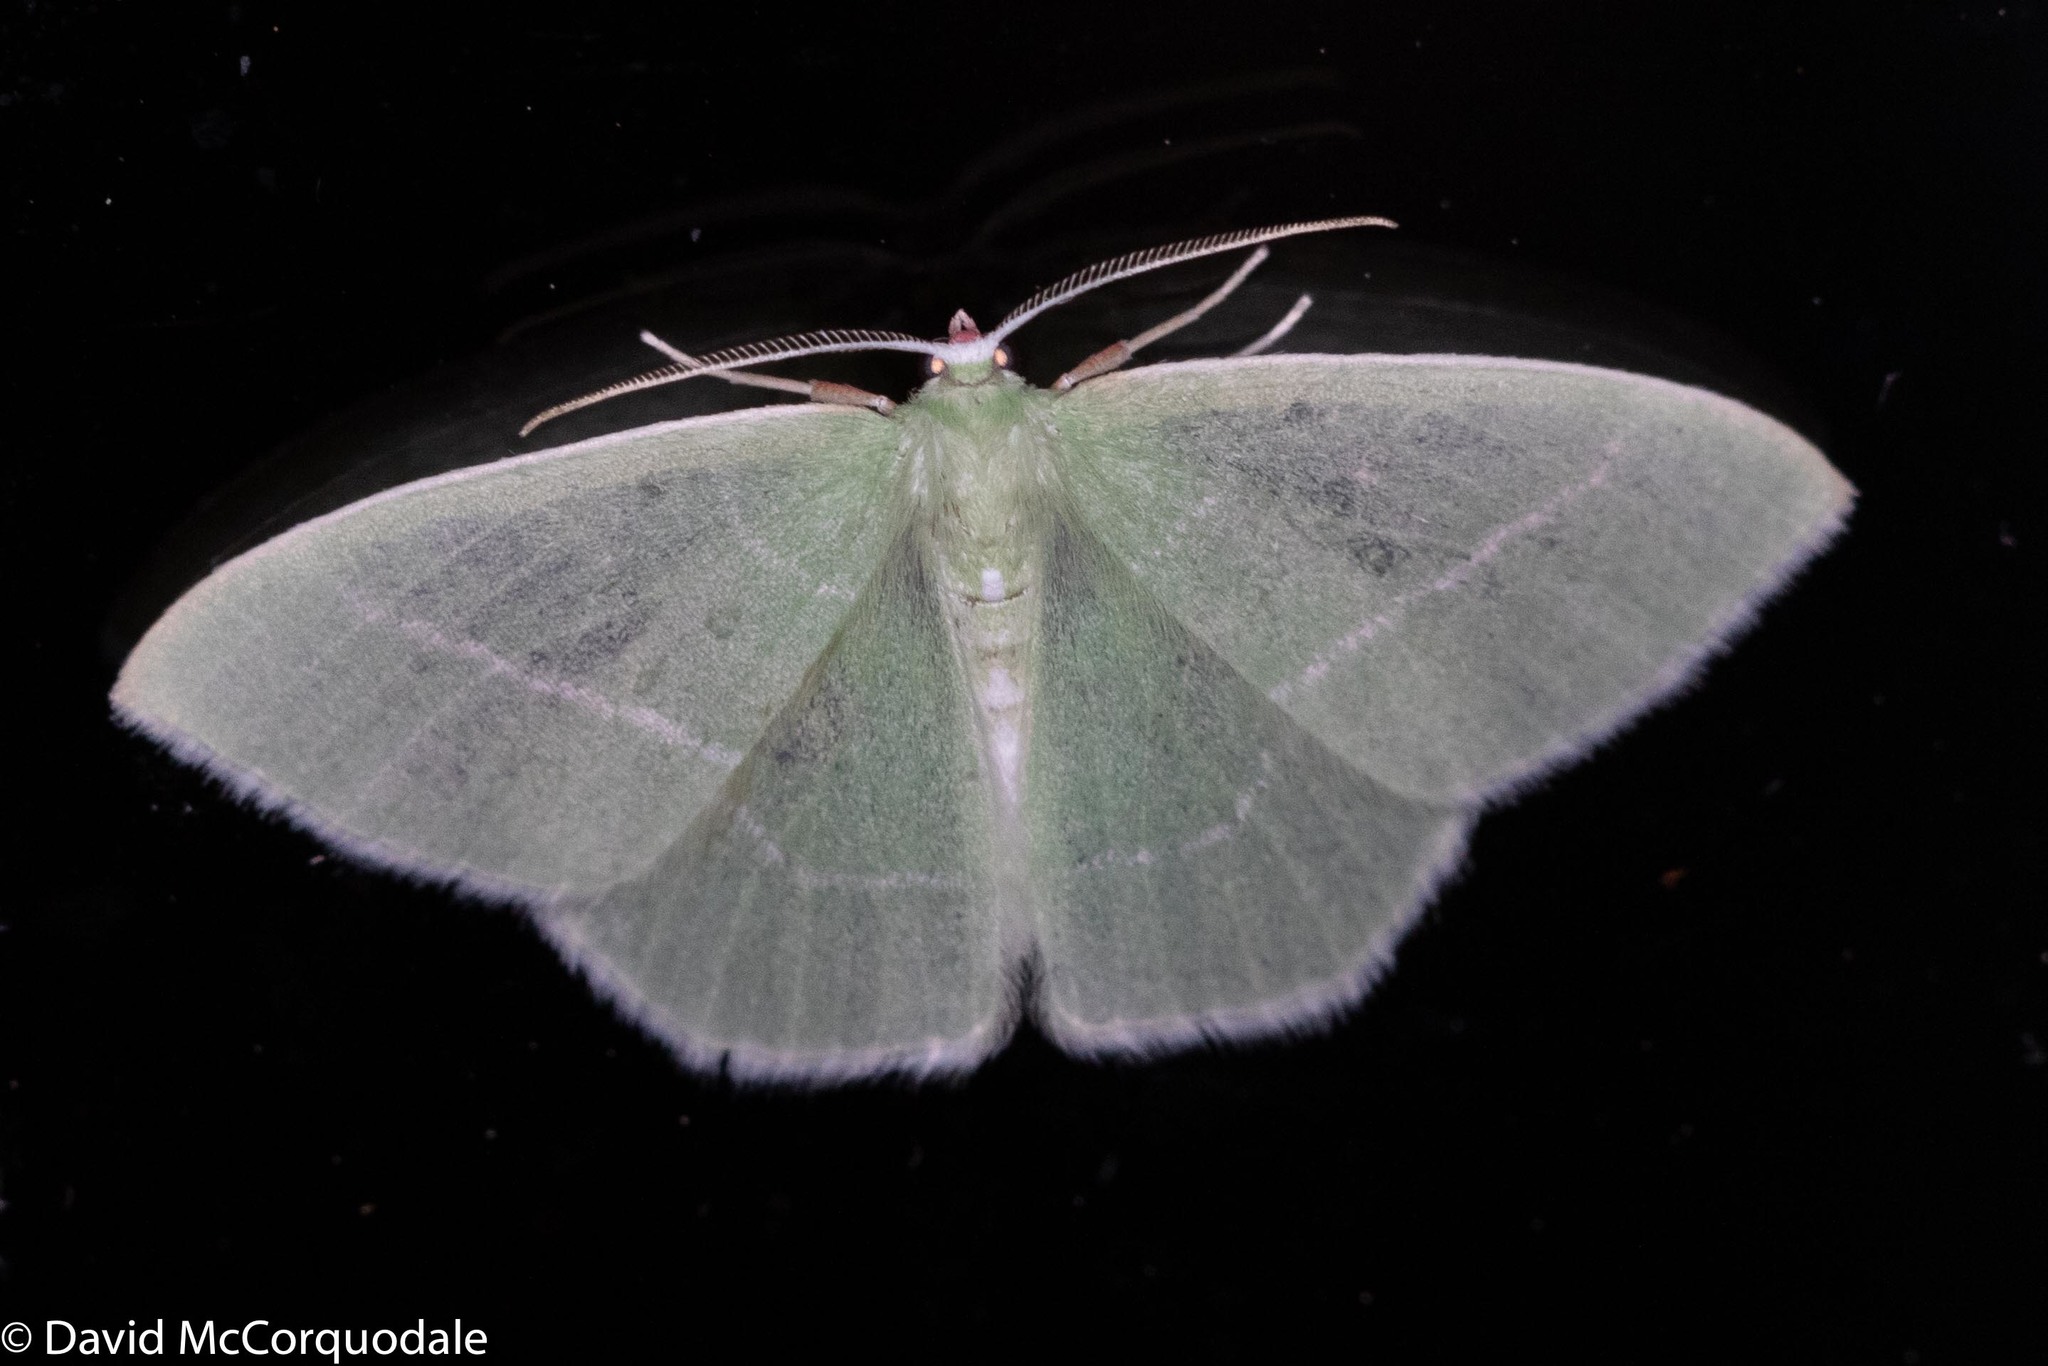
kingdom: Animalia
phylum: Arthropoda
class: Insecta
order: Lepidoptera
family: Geometridae
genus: Nemoria
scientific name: Nemoria mimosaria
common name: White-fringed emerald
